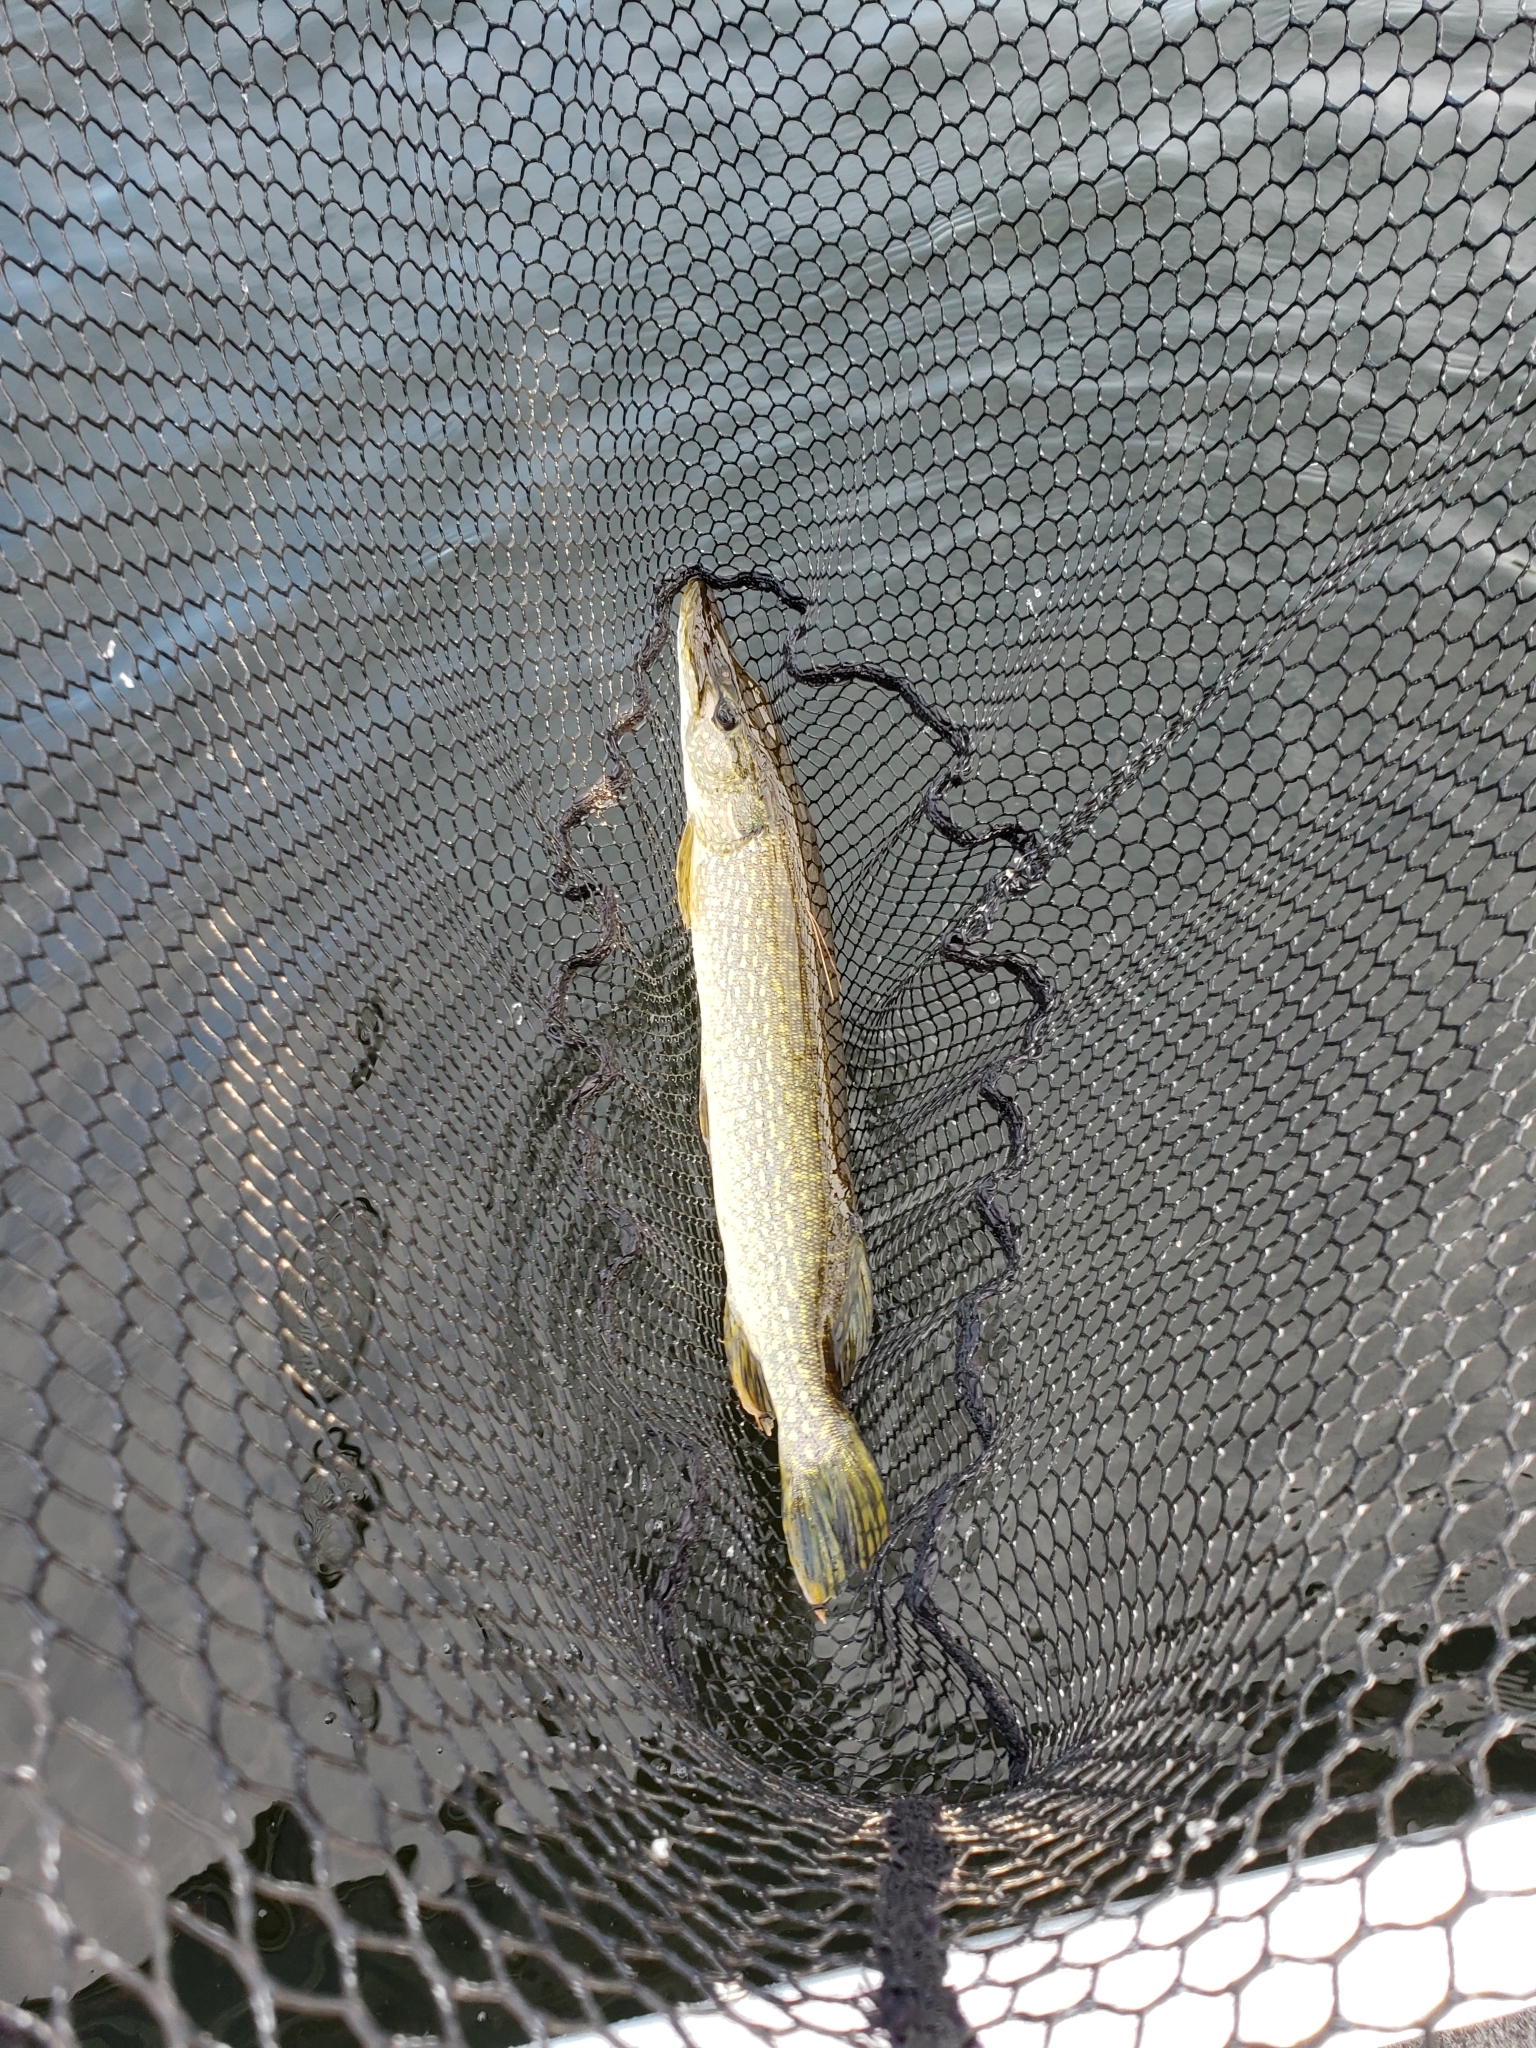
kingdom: Animalia
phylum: Chordata
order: Esociformes
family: Esocidae
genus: Esox
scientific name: Esox lucius
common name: Northern pike
